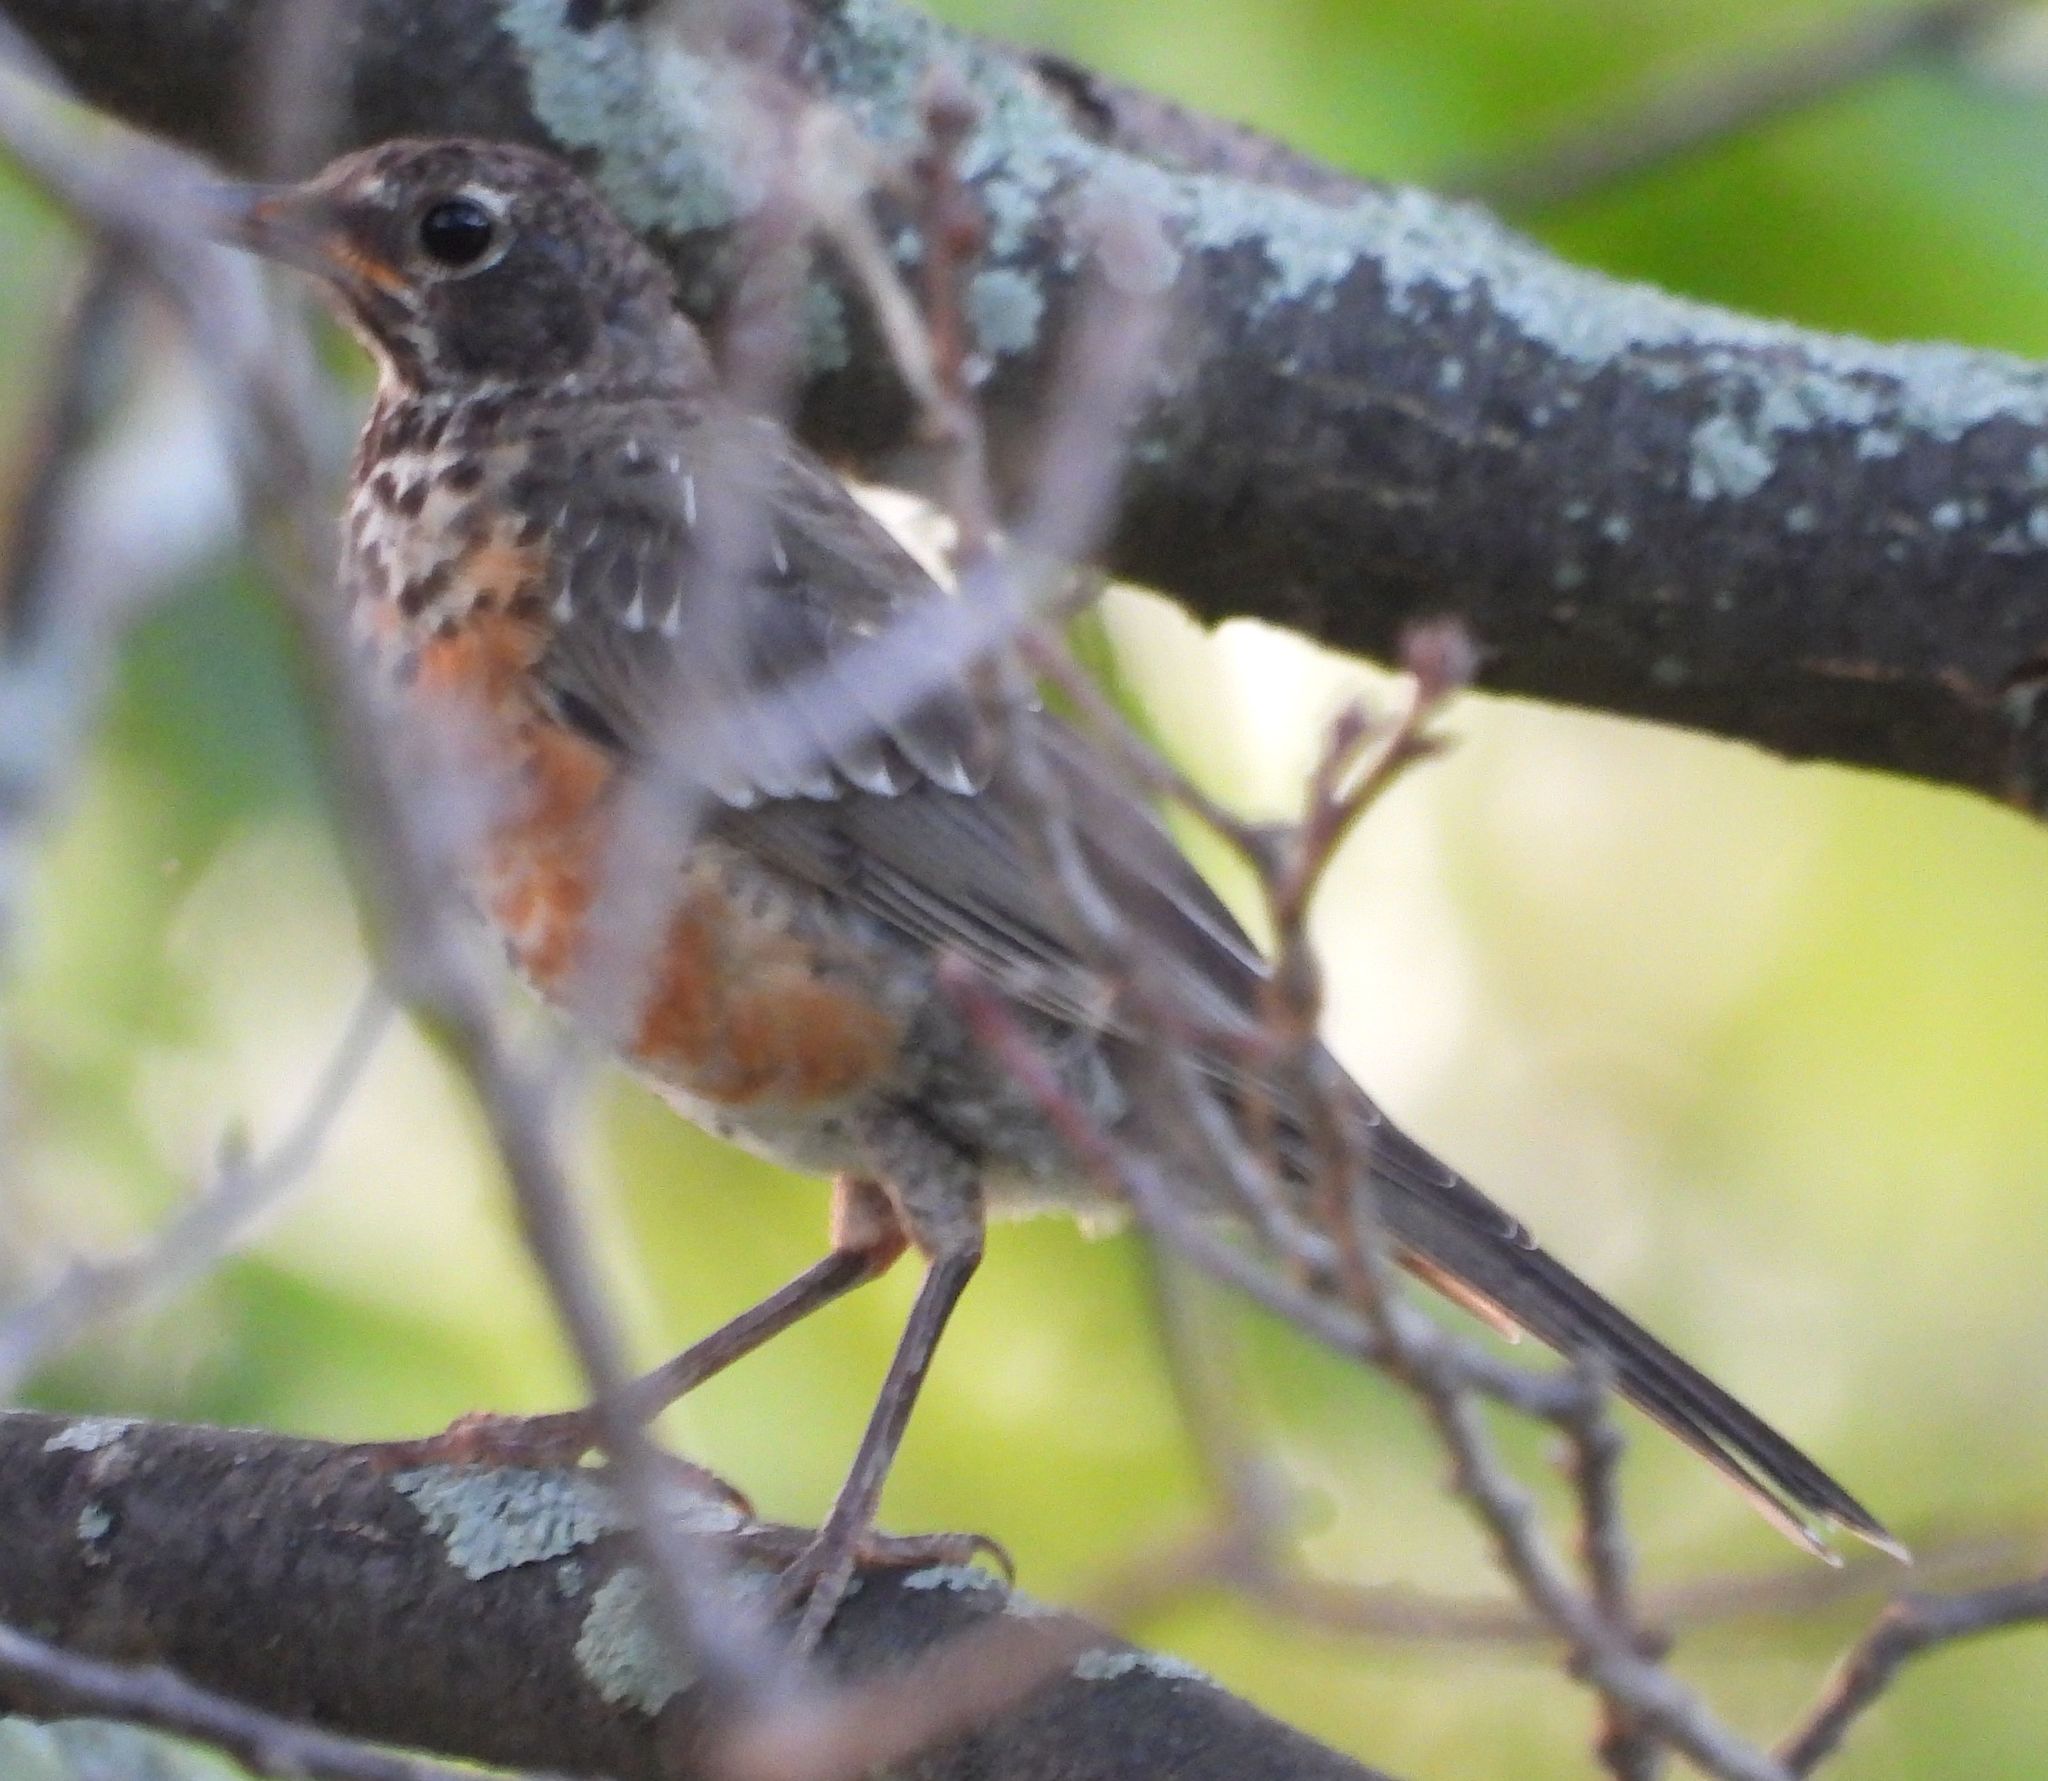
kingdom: Animalia
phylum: Chordata
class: Aves
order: Passeriformes
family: Turdidae
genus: Turdus
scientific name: Turdus migratorius
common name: American robin
